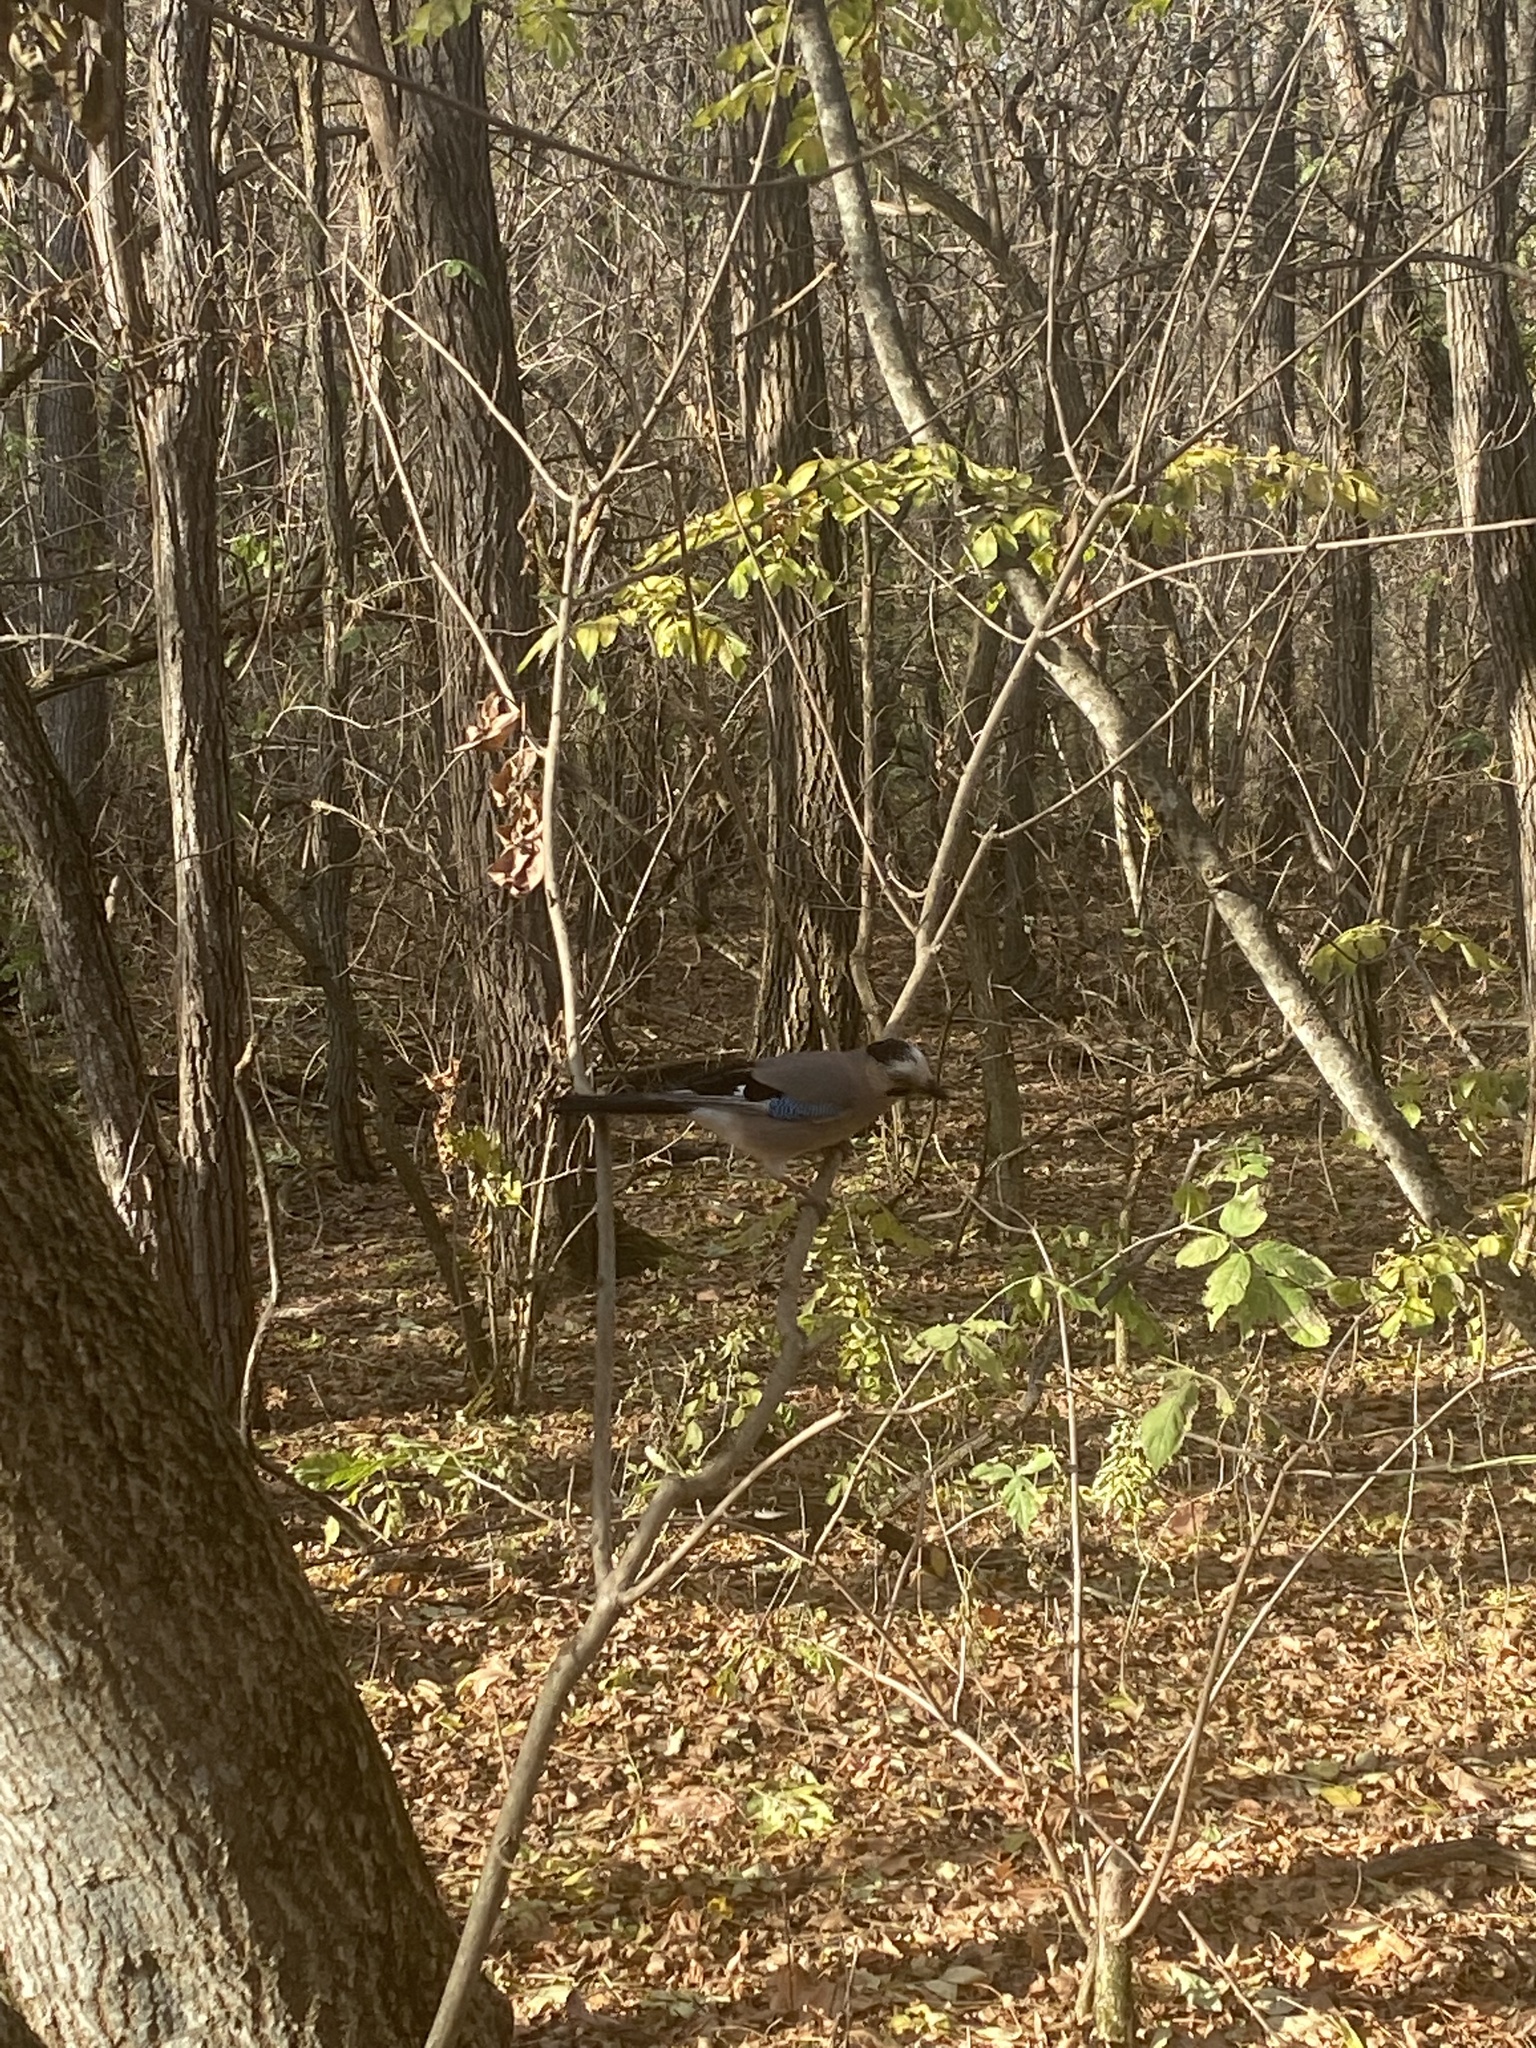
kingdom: Animalia
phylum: Chordata
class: Aves
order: Passeriformes
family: Corvidae
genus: Garrulus
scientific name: Garrulus glandarius
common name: Eurasian jay
